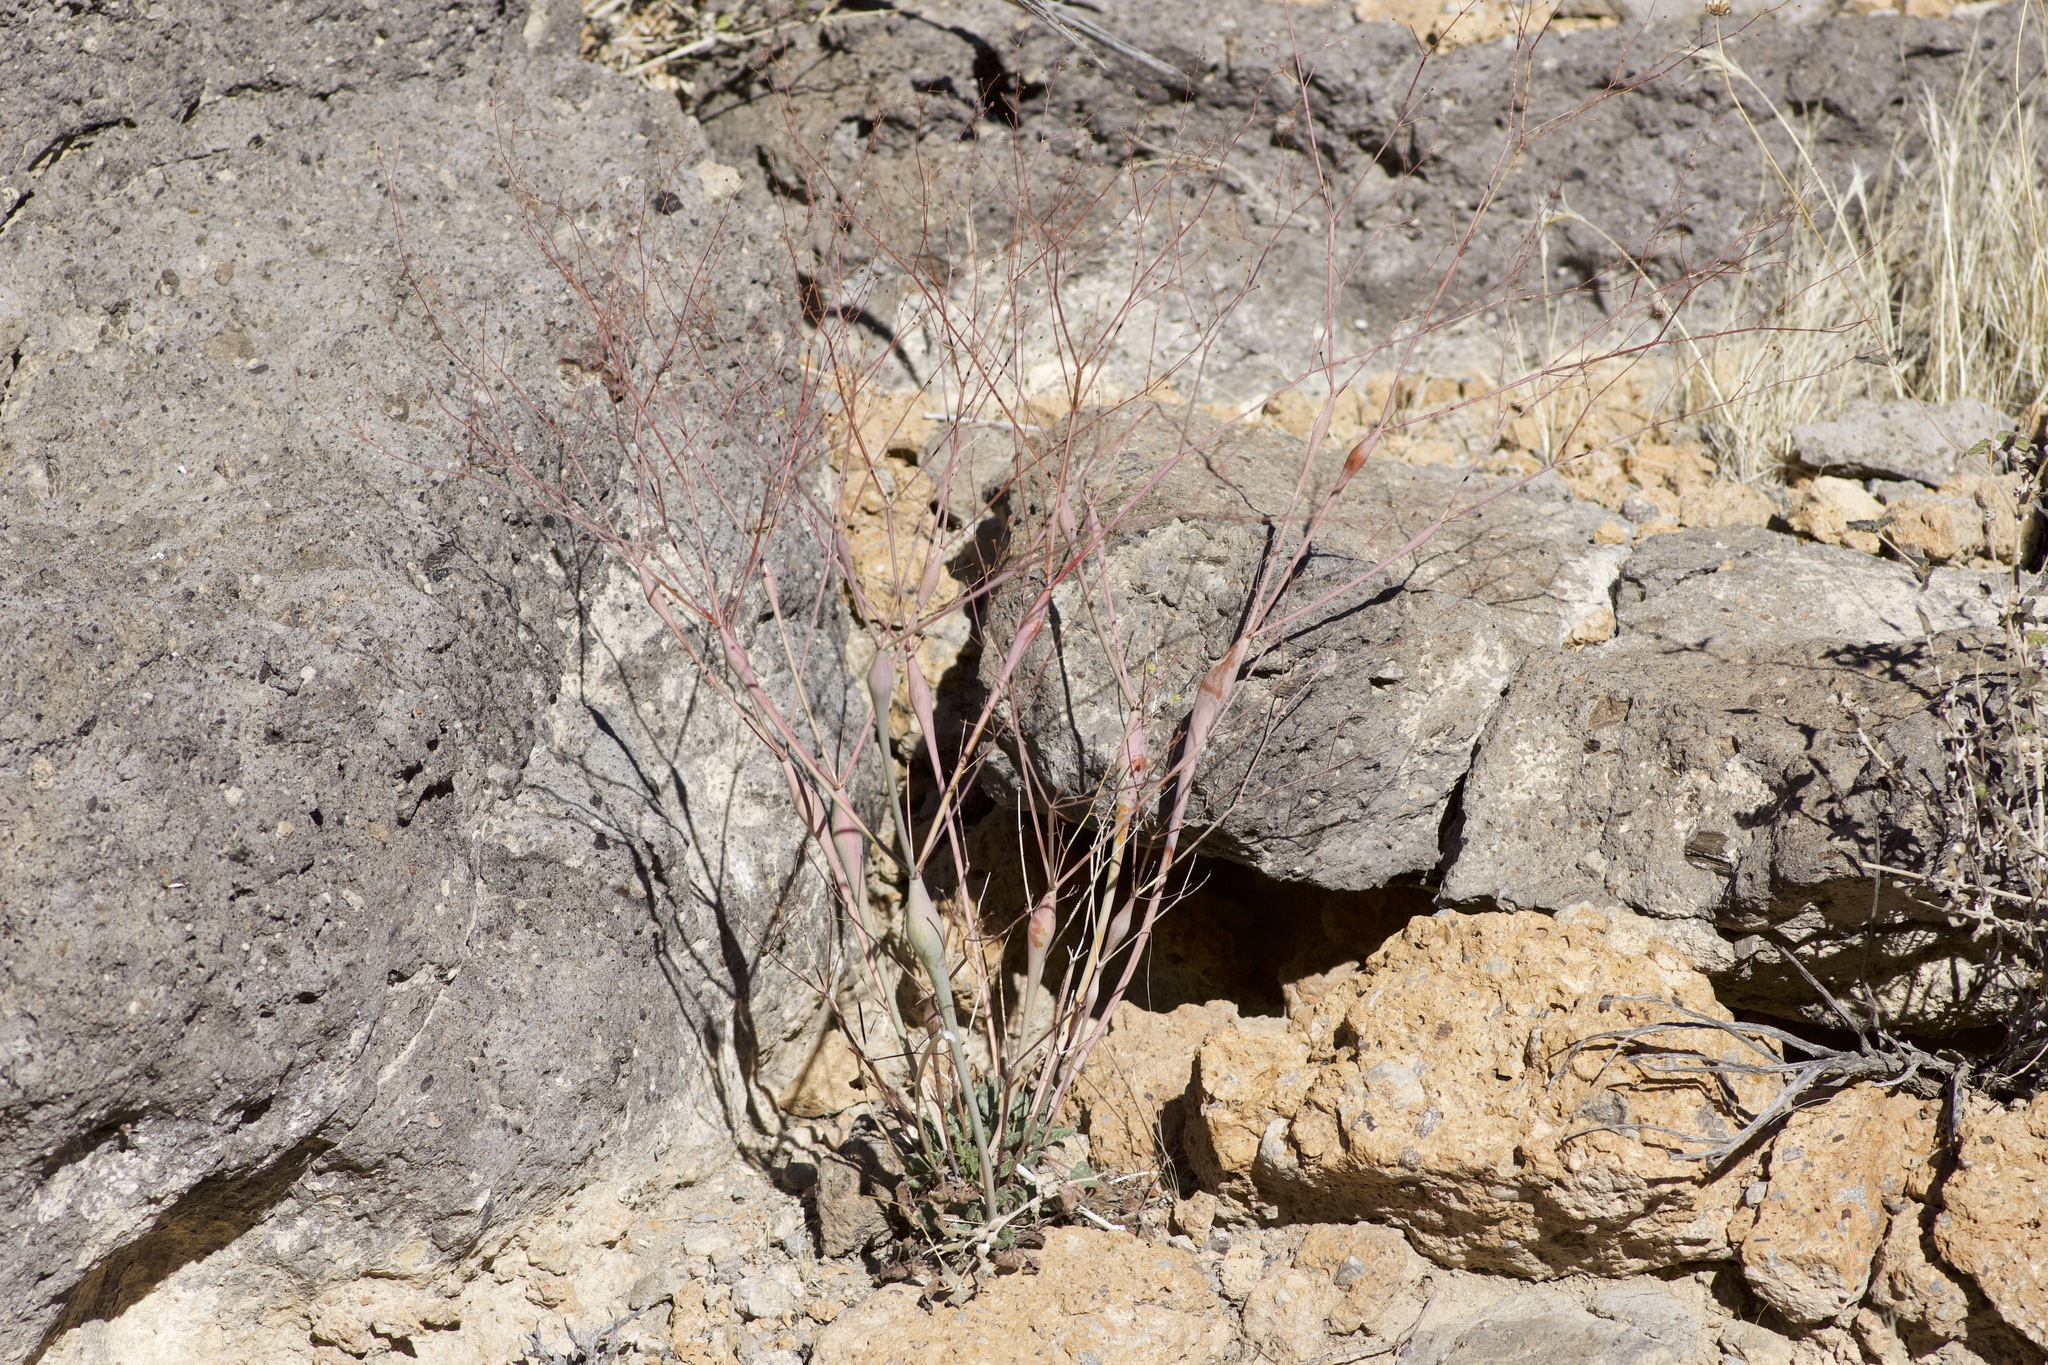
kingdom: Plantae
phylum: Tracheophyta
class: Magnoliopsida
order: Caryophyllales
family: Polygonaceae
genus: Eriogonum
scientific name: Eriogonum inflatum
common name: Desert trumpet
